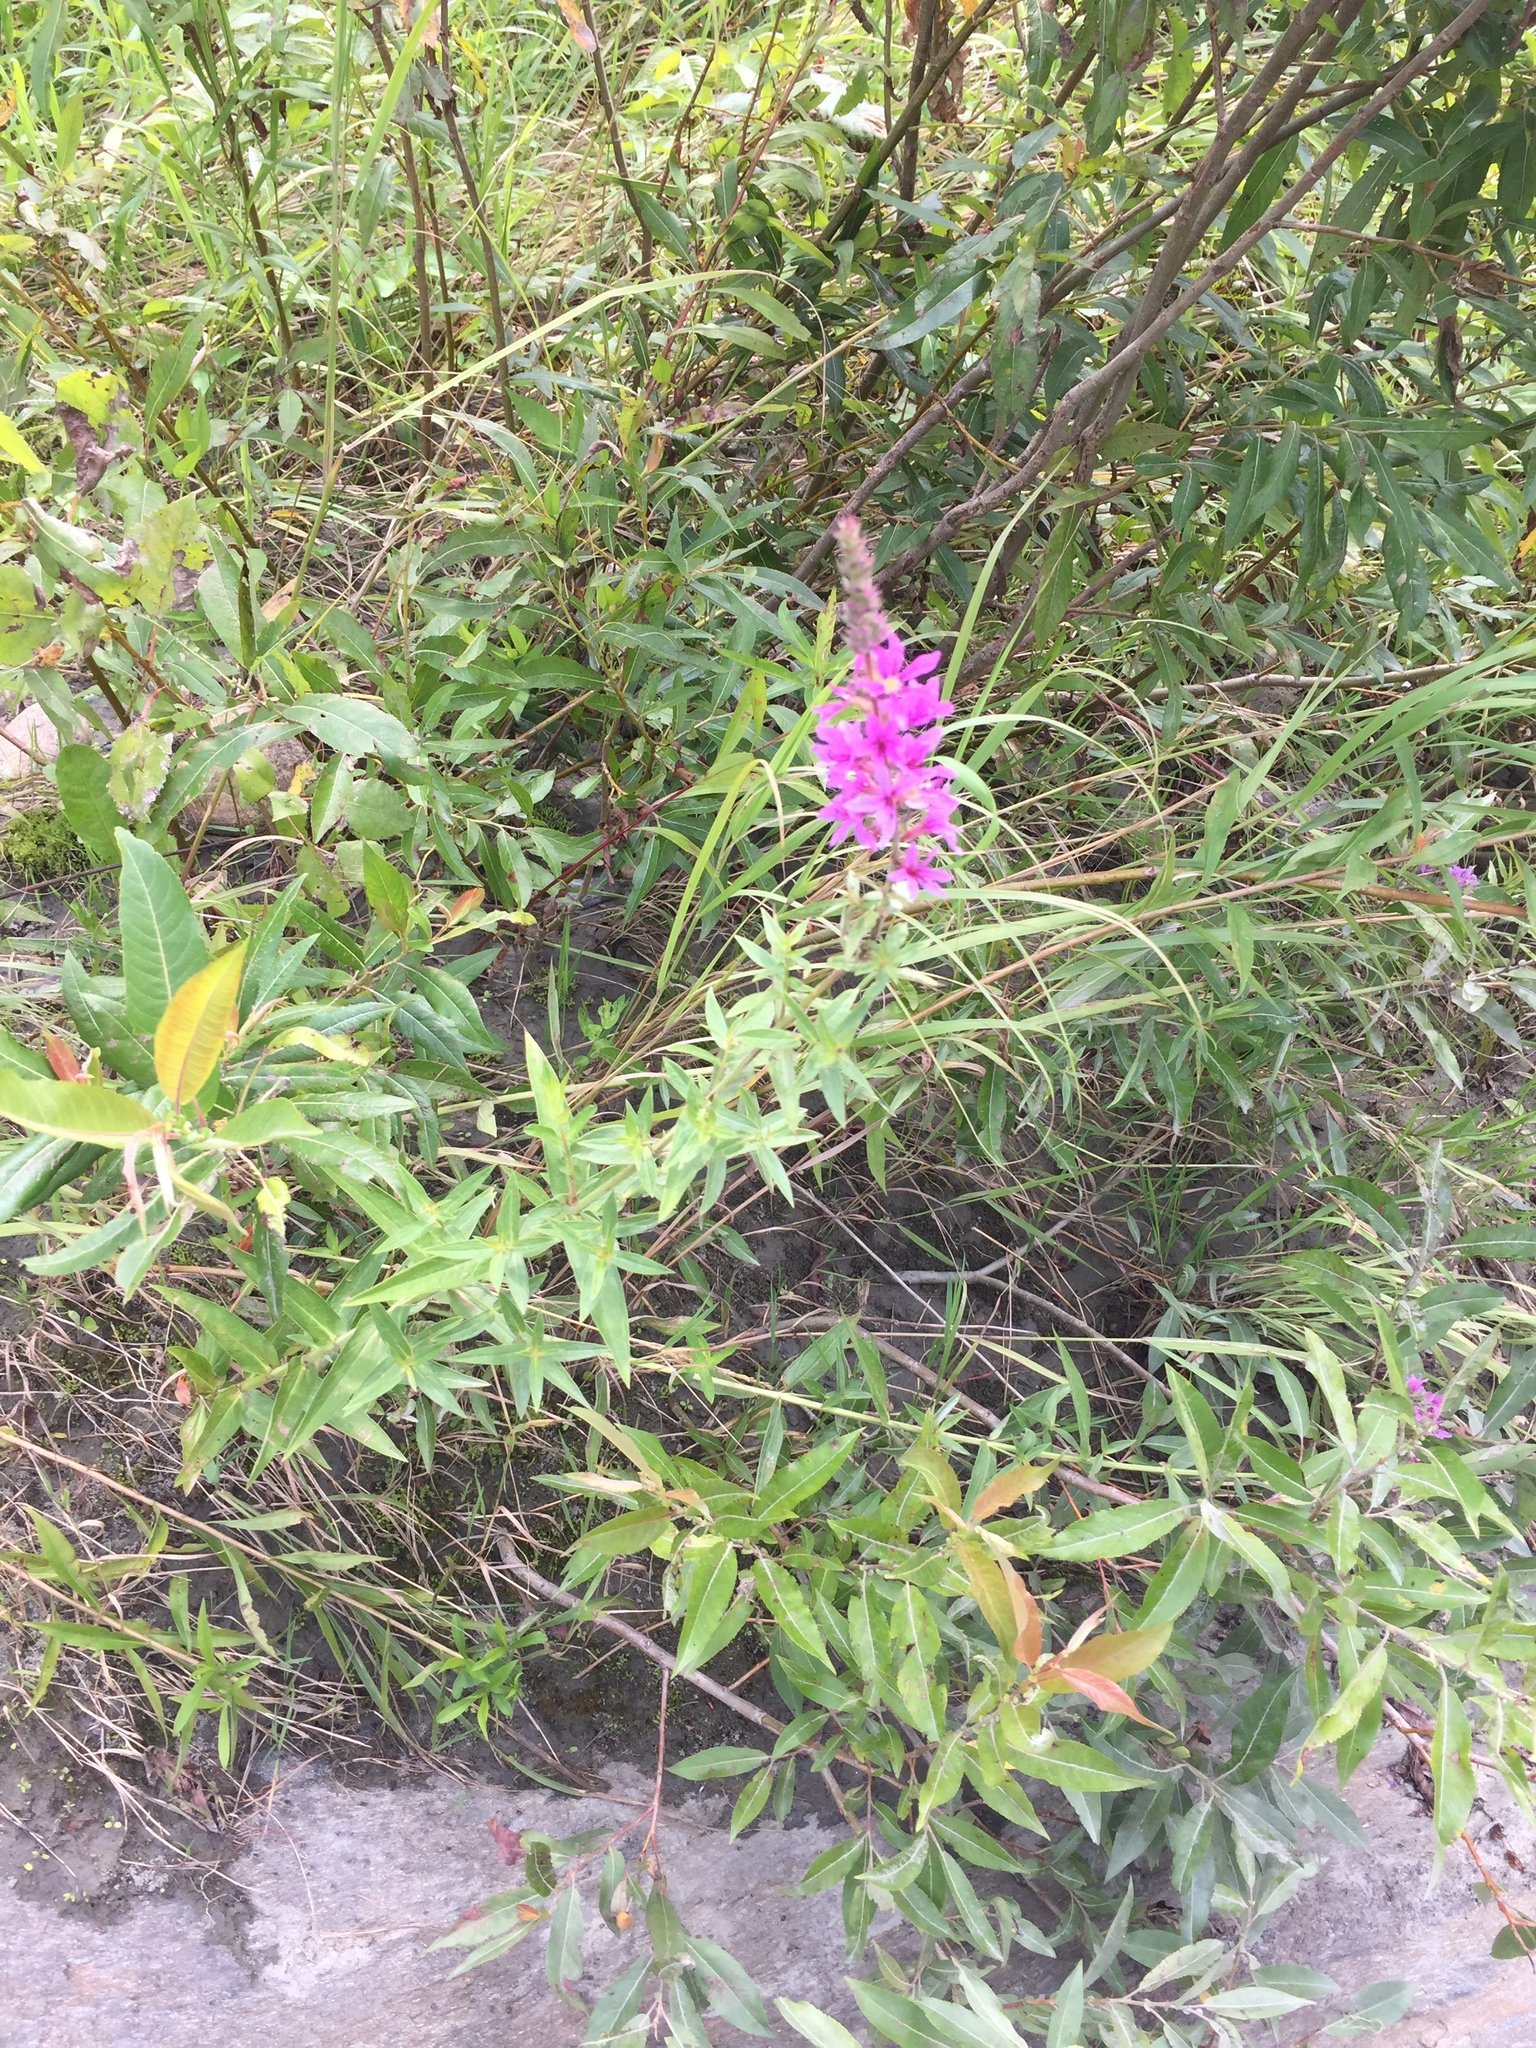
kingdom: Plantae
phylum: Tracheophyta
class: Magnoliopsida
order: Myrtales
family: Lythraceae
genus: Lythrum
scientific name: Lythrum salicaria
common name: Purple loosestrife
